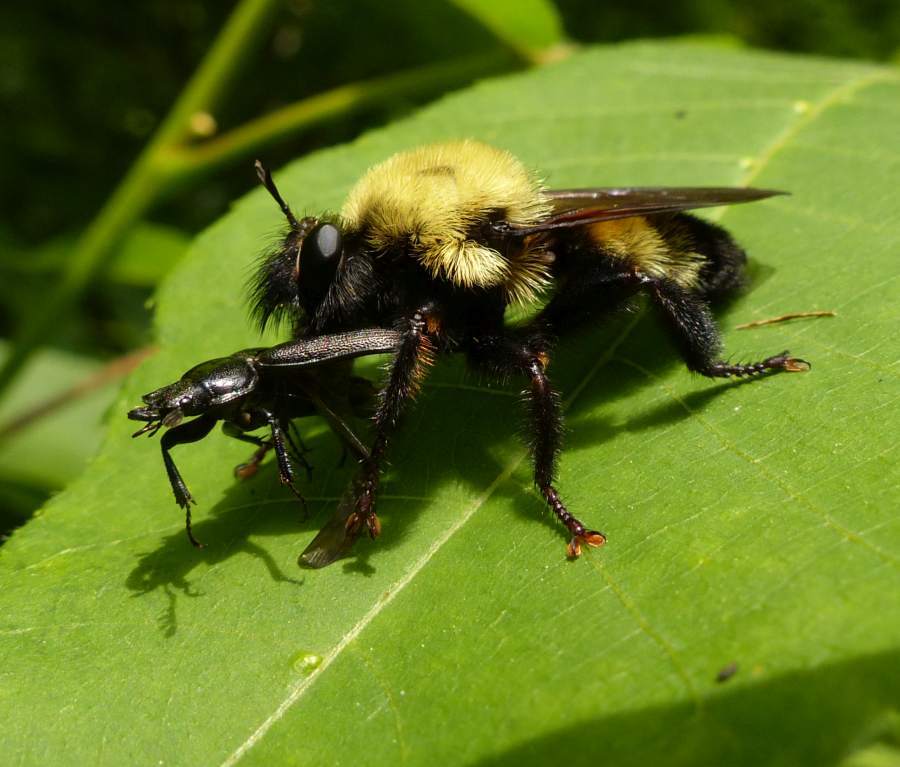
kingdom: Animalia
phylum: Arthropoda
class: Insecta
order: Diptera
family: Asilidae
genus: Laphria
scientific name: Laphria thoracica
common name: Bumble bee mimic robber fly
